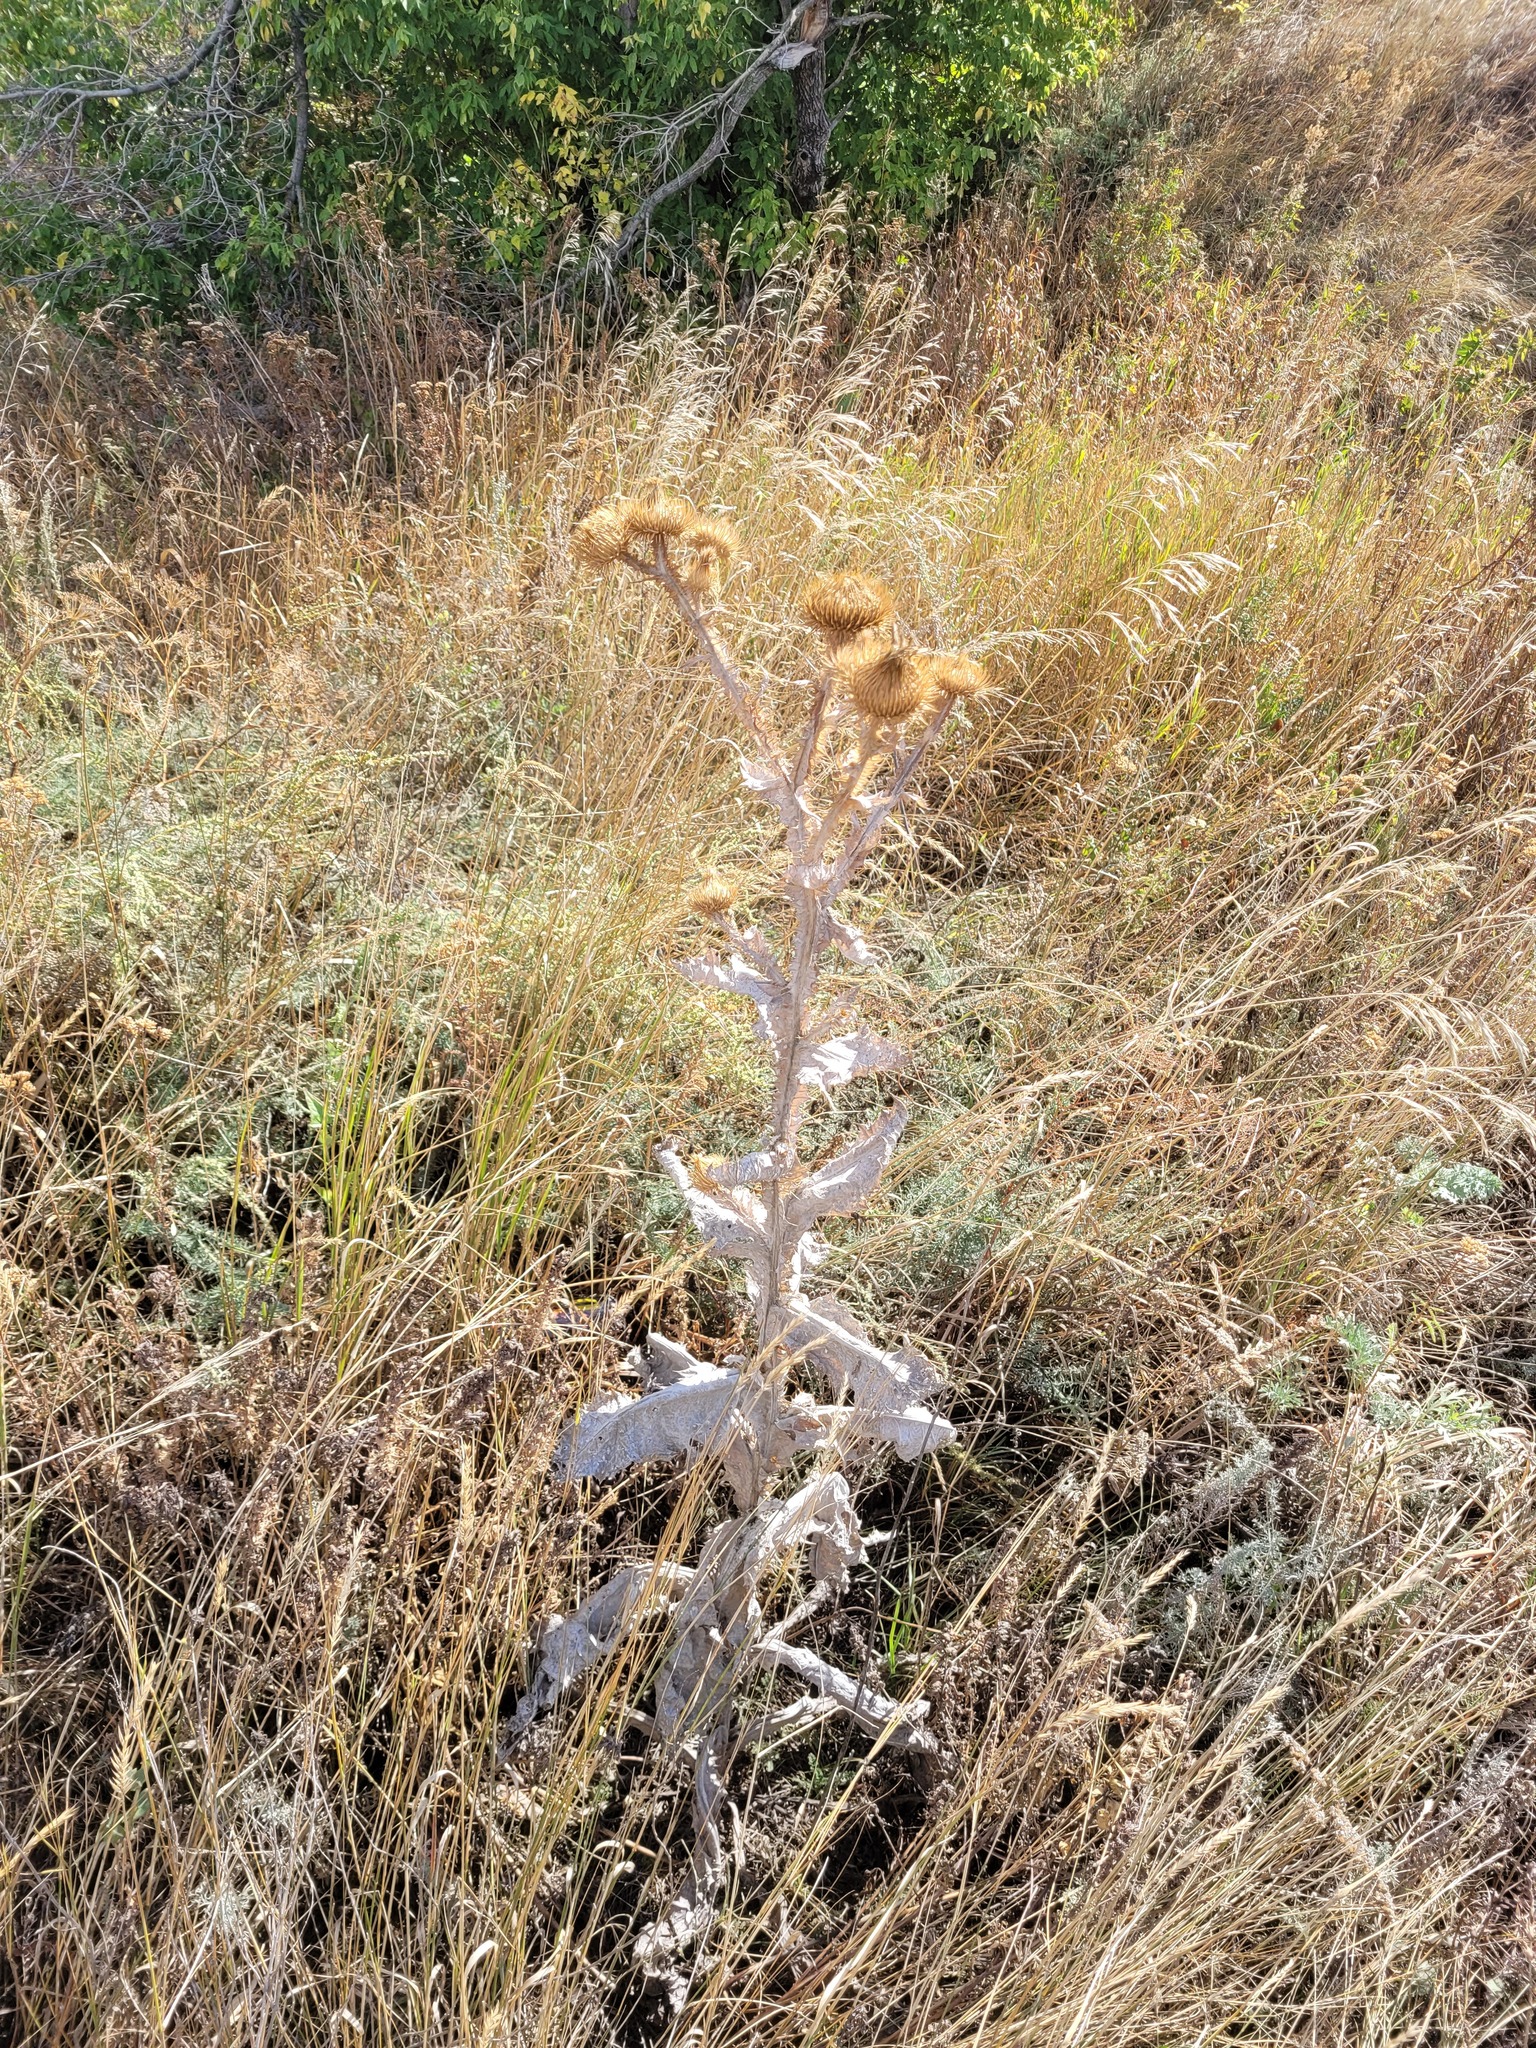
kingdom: Plantae
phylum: Tracheophyta
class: Magnoliopsida
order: Asterales
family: Asteraceae
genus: Onopordum
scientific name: Onopordum acanthium
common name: Scotch thistle
